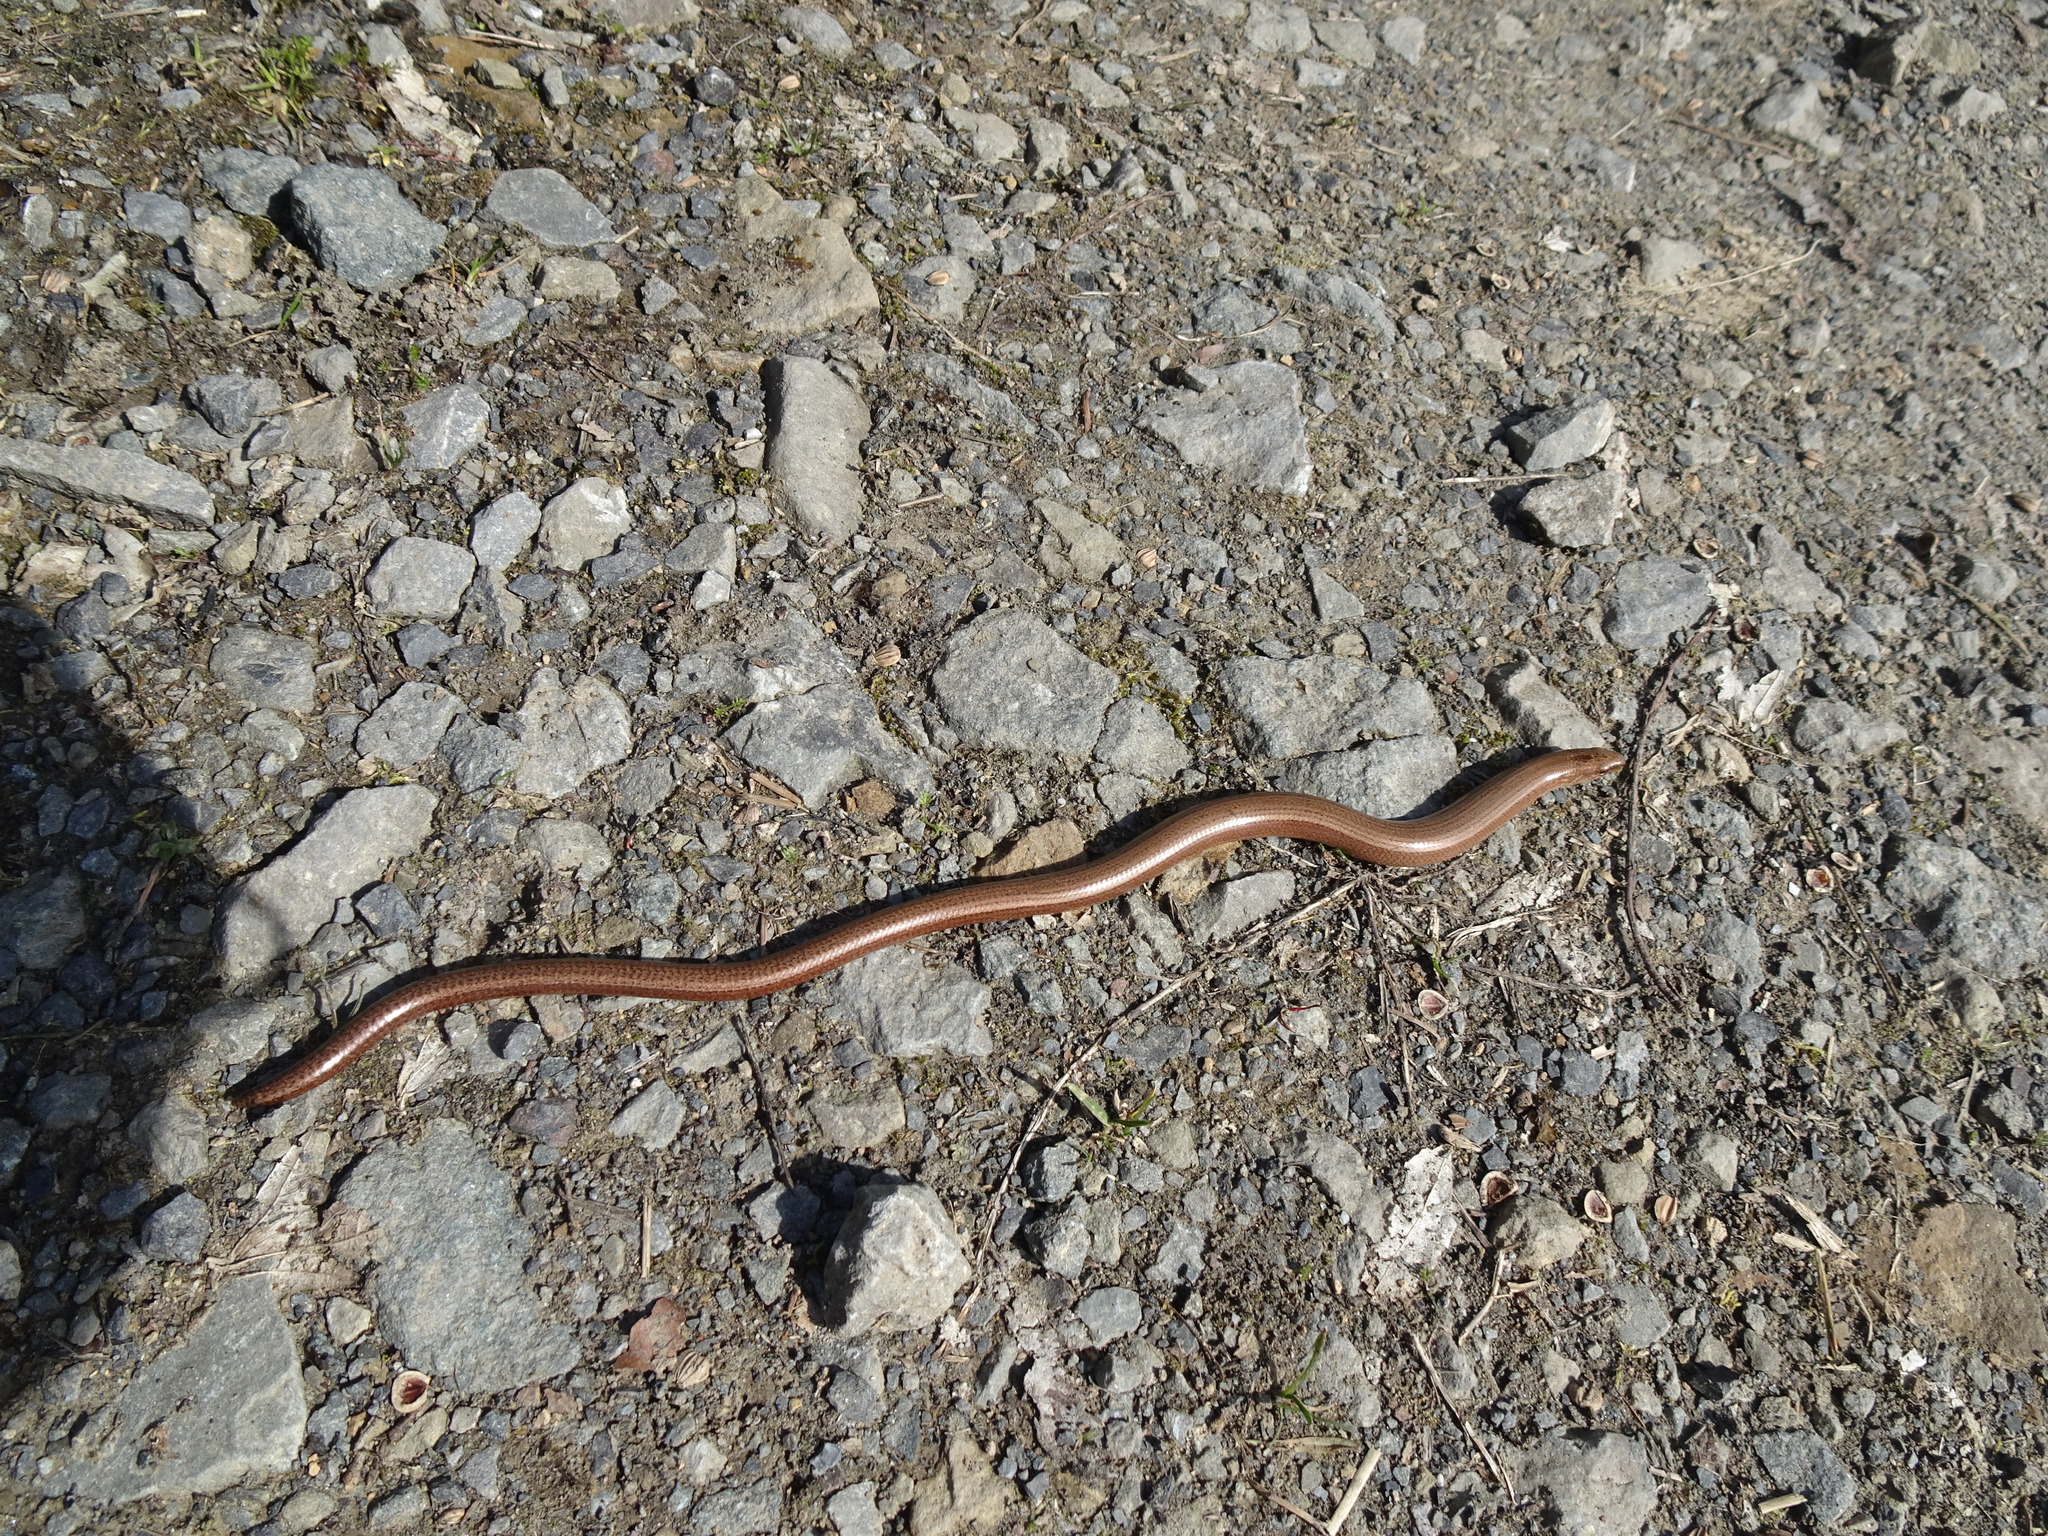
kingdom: Animalia
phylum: Chordata
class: Squamata
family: Anguidae
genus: Anguis
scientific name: Anguis fragilis
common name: Slow worm
